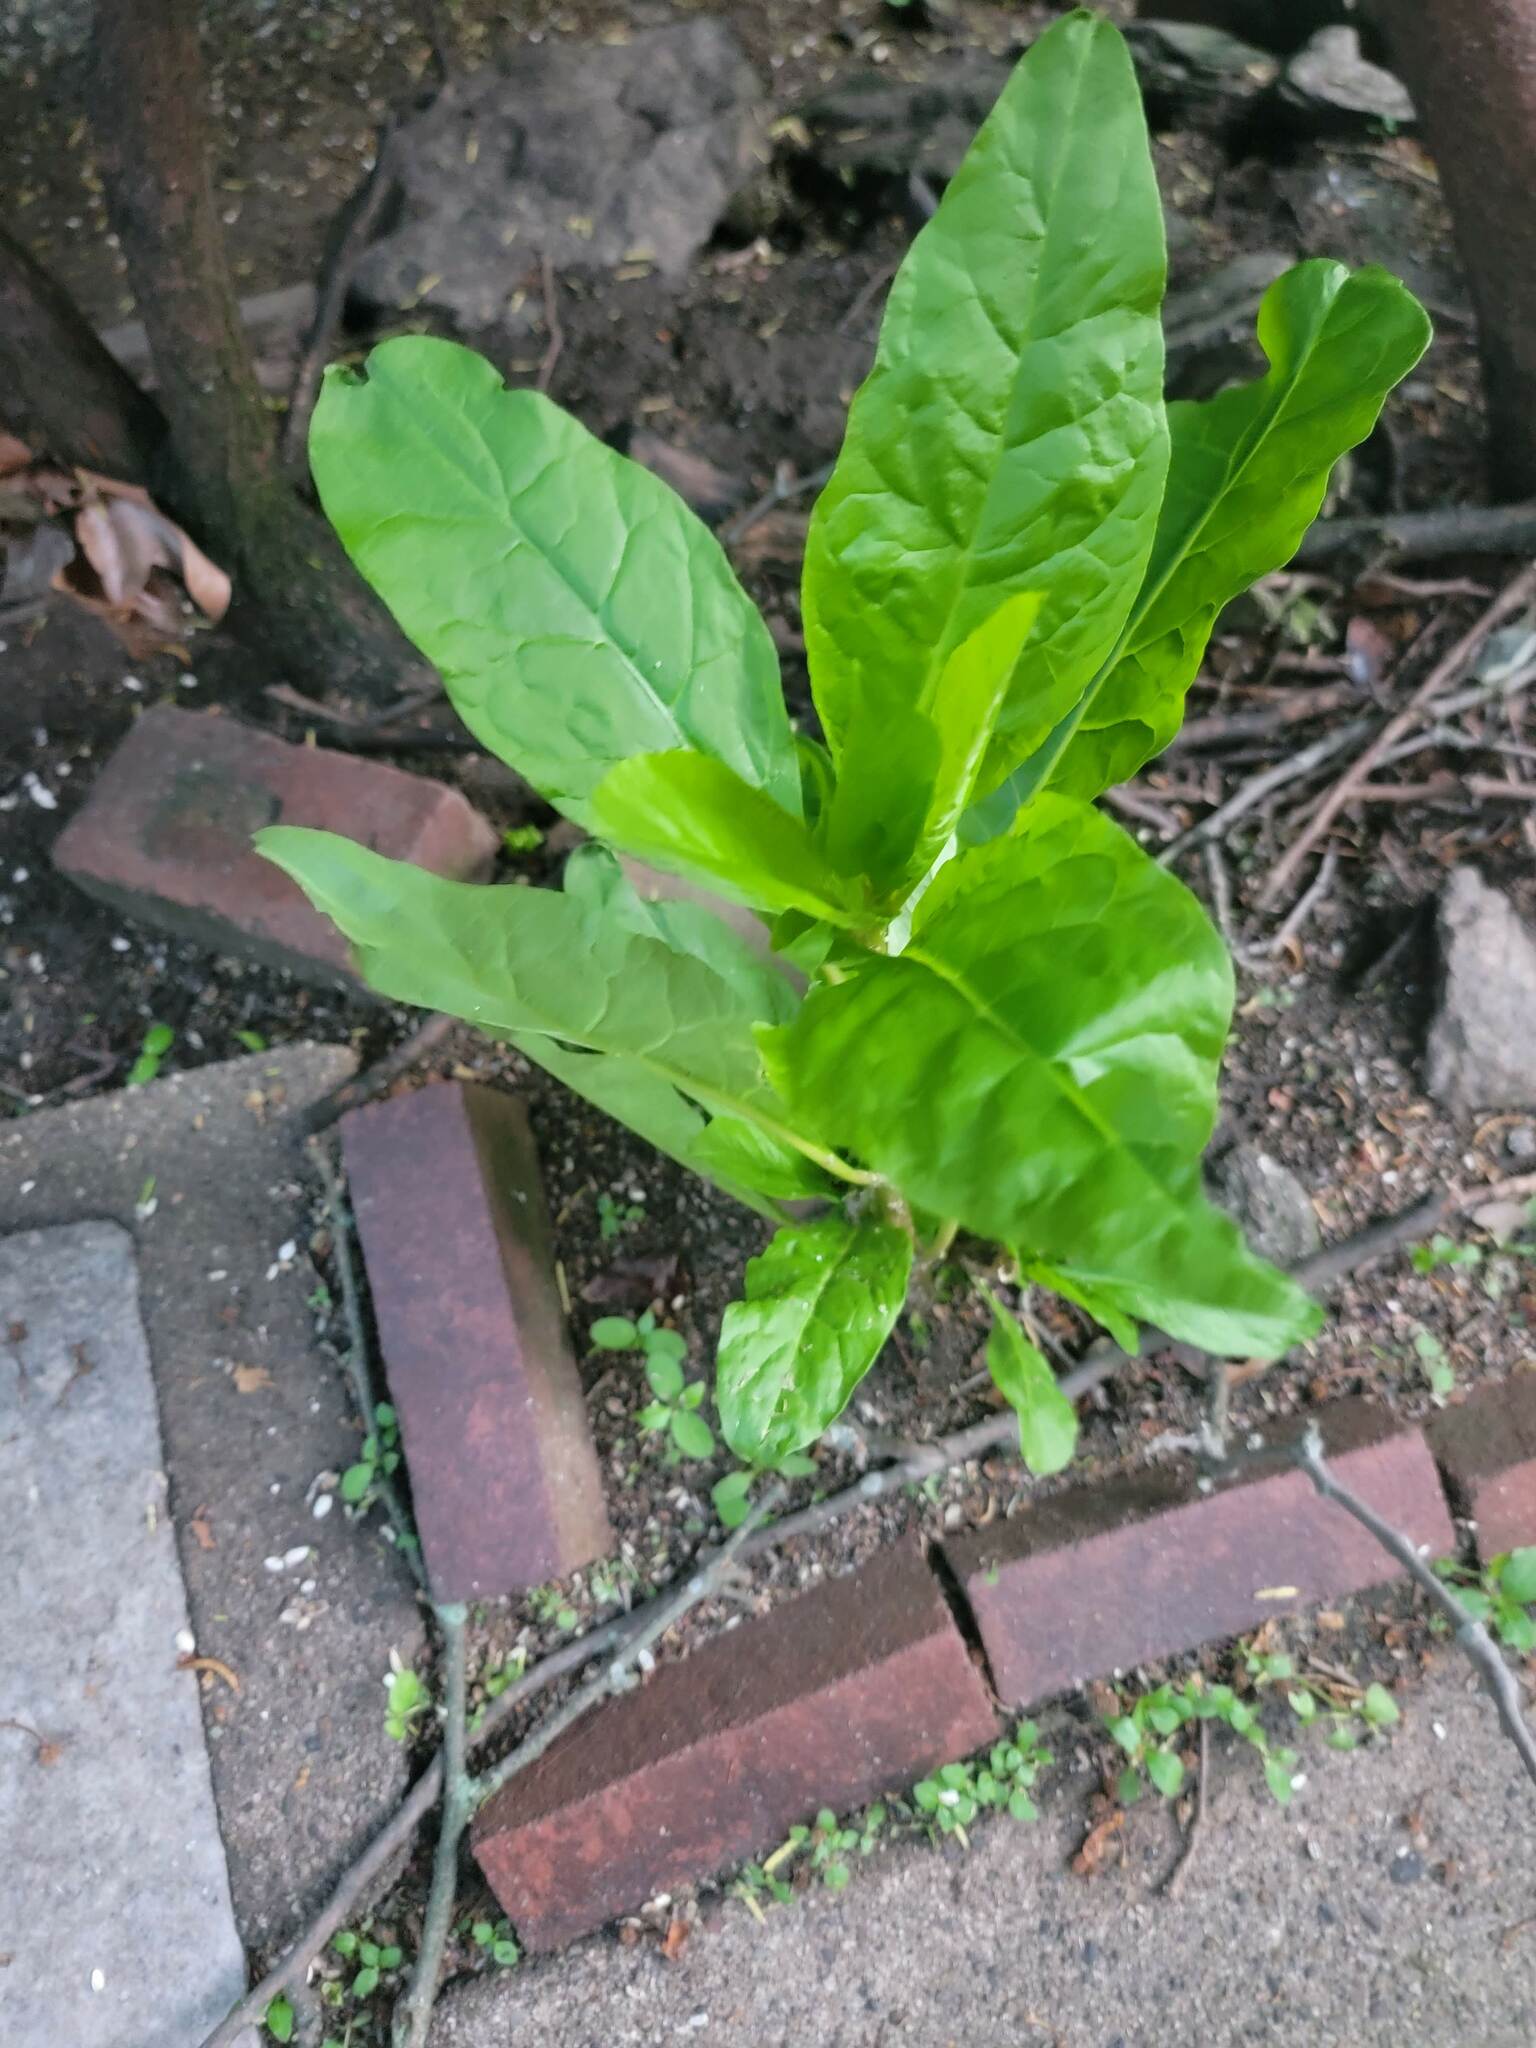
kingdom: Plantae
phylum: Tracheophyta
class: Magnoliopsida
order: Caryophyllales
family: Phytolaccaceae
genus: Phytolacca
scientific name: Phytolacca americana
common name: American pokeweed
